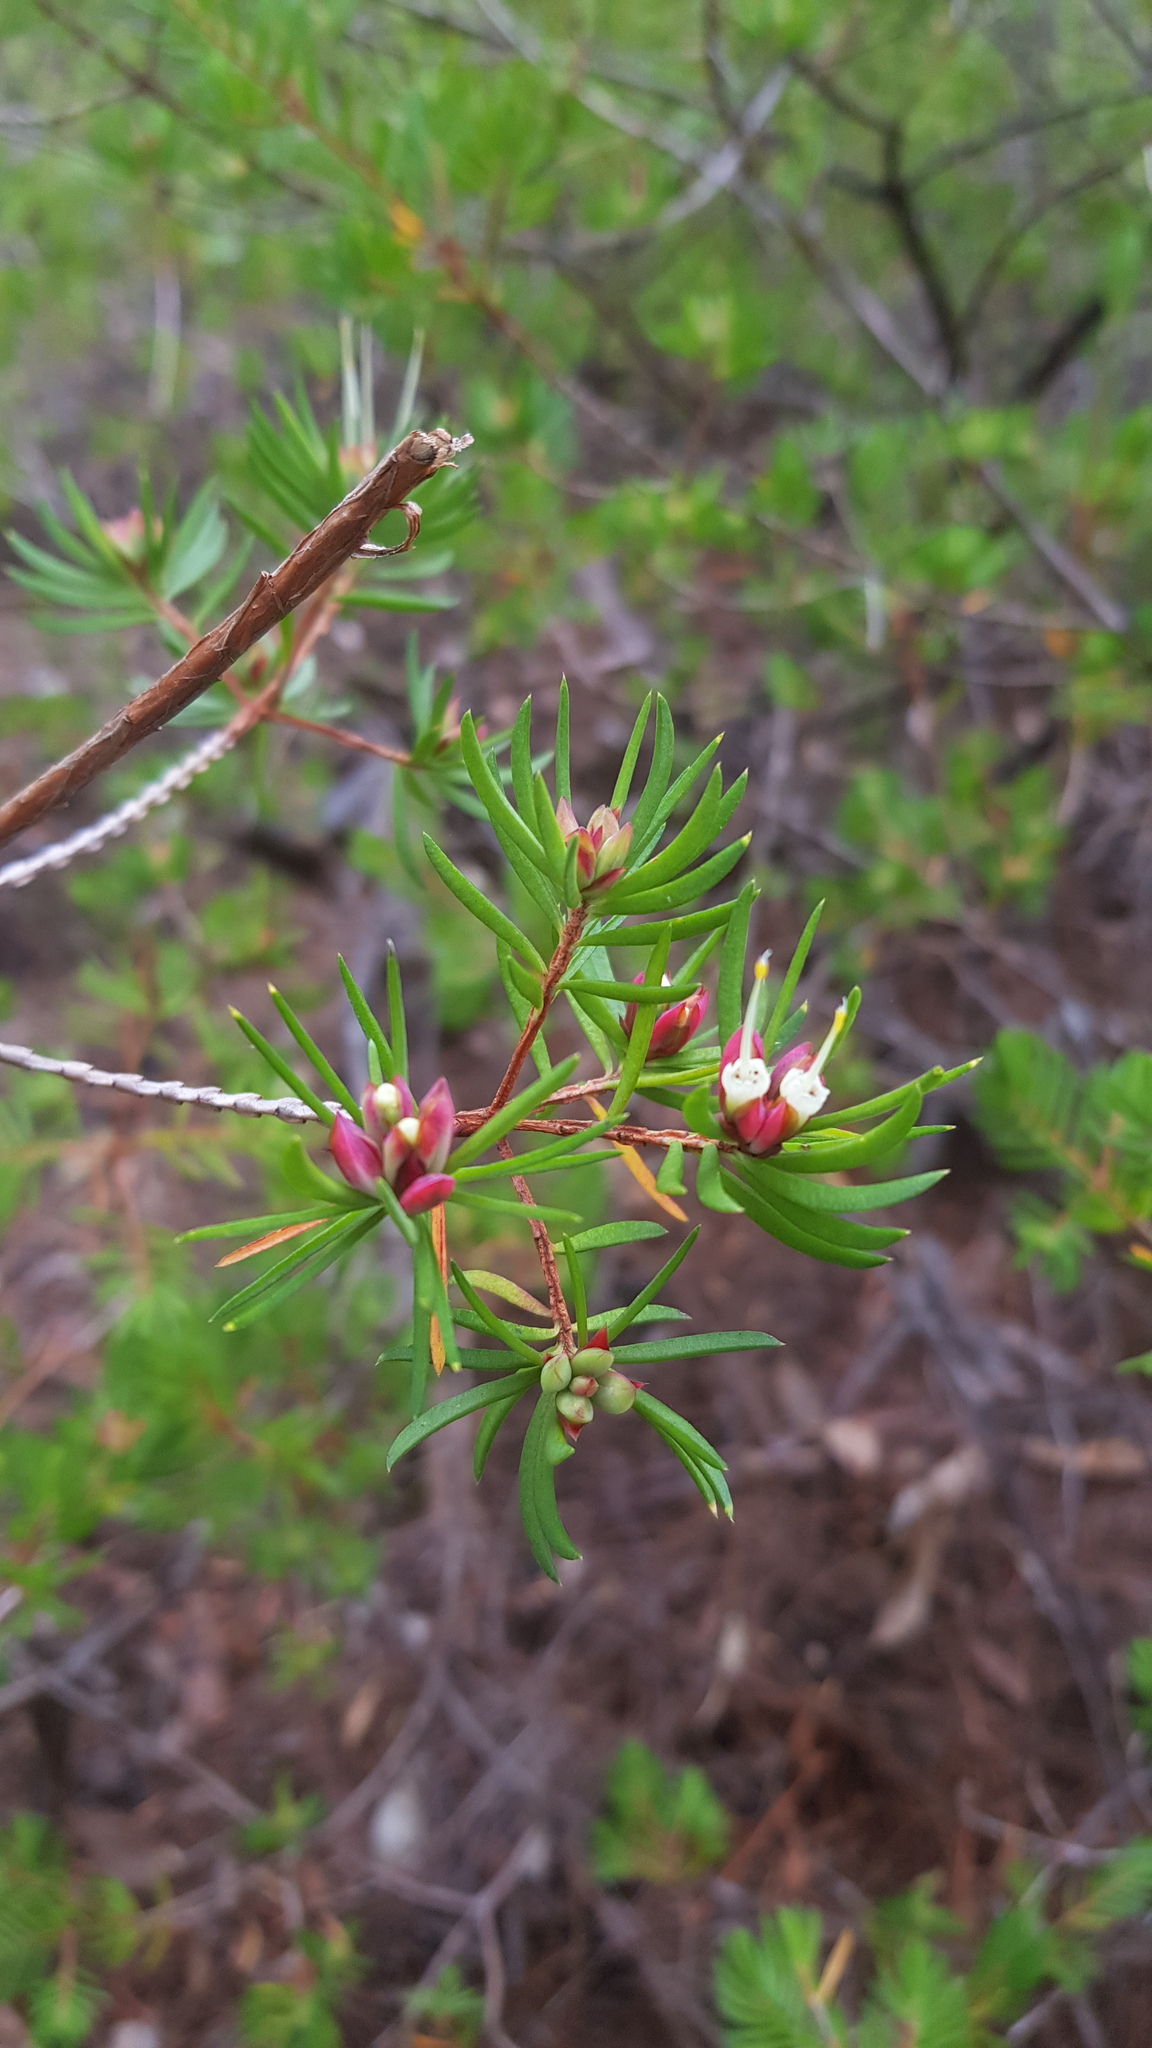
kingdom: Plantae
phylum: Tracheophyta
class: Magnoliopsida
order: Myrtales
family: Myrtaceae
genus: Darwinia
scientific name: Darwinia procera
